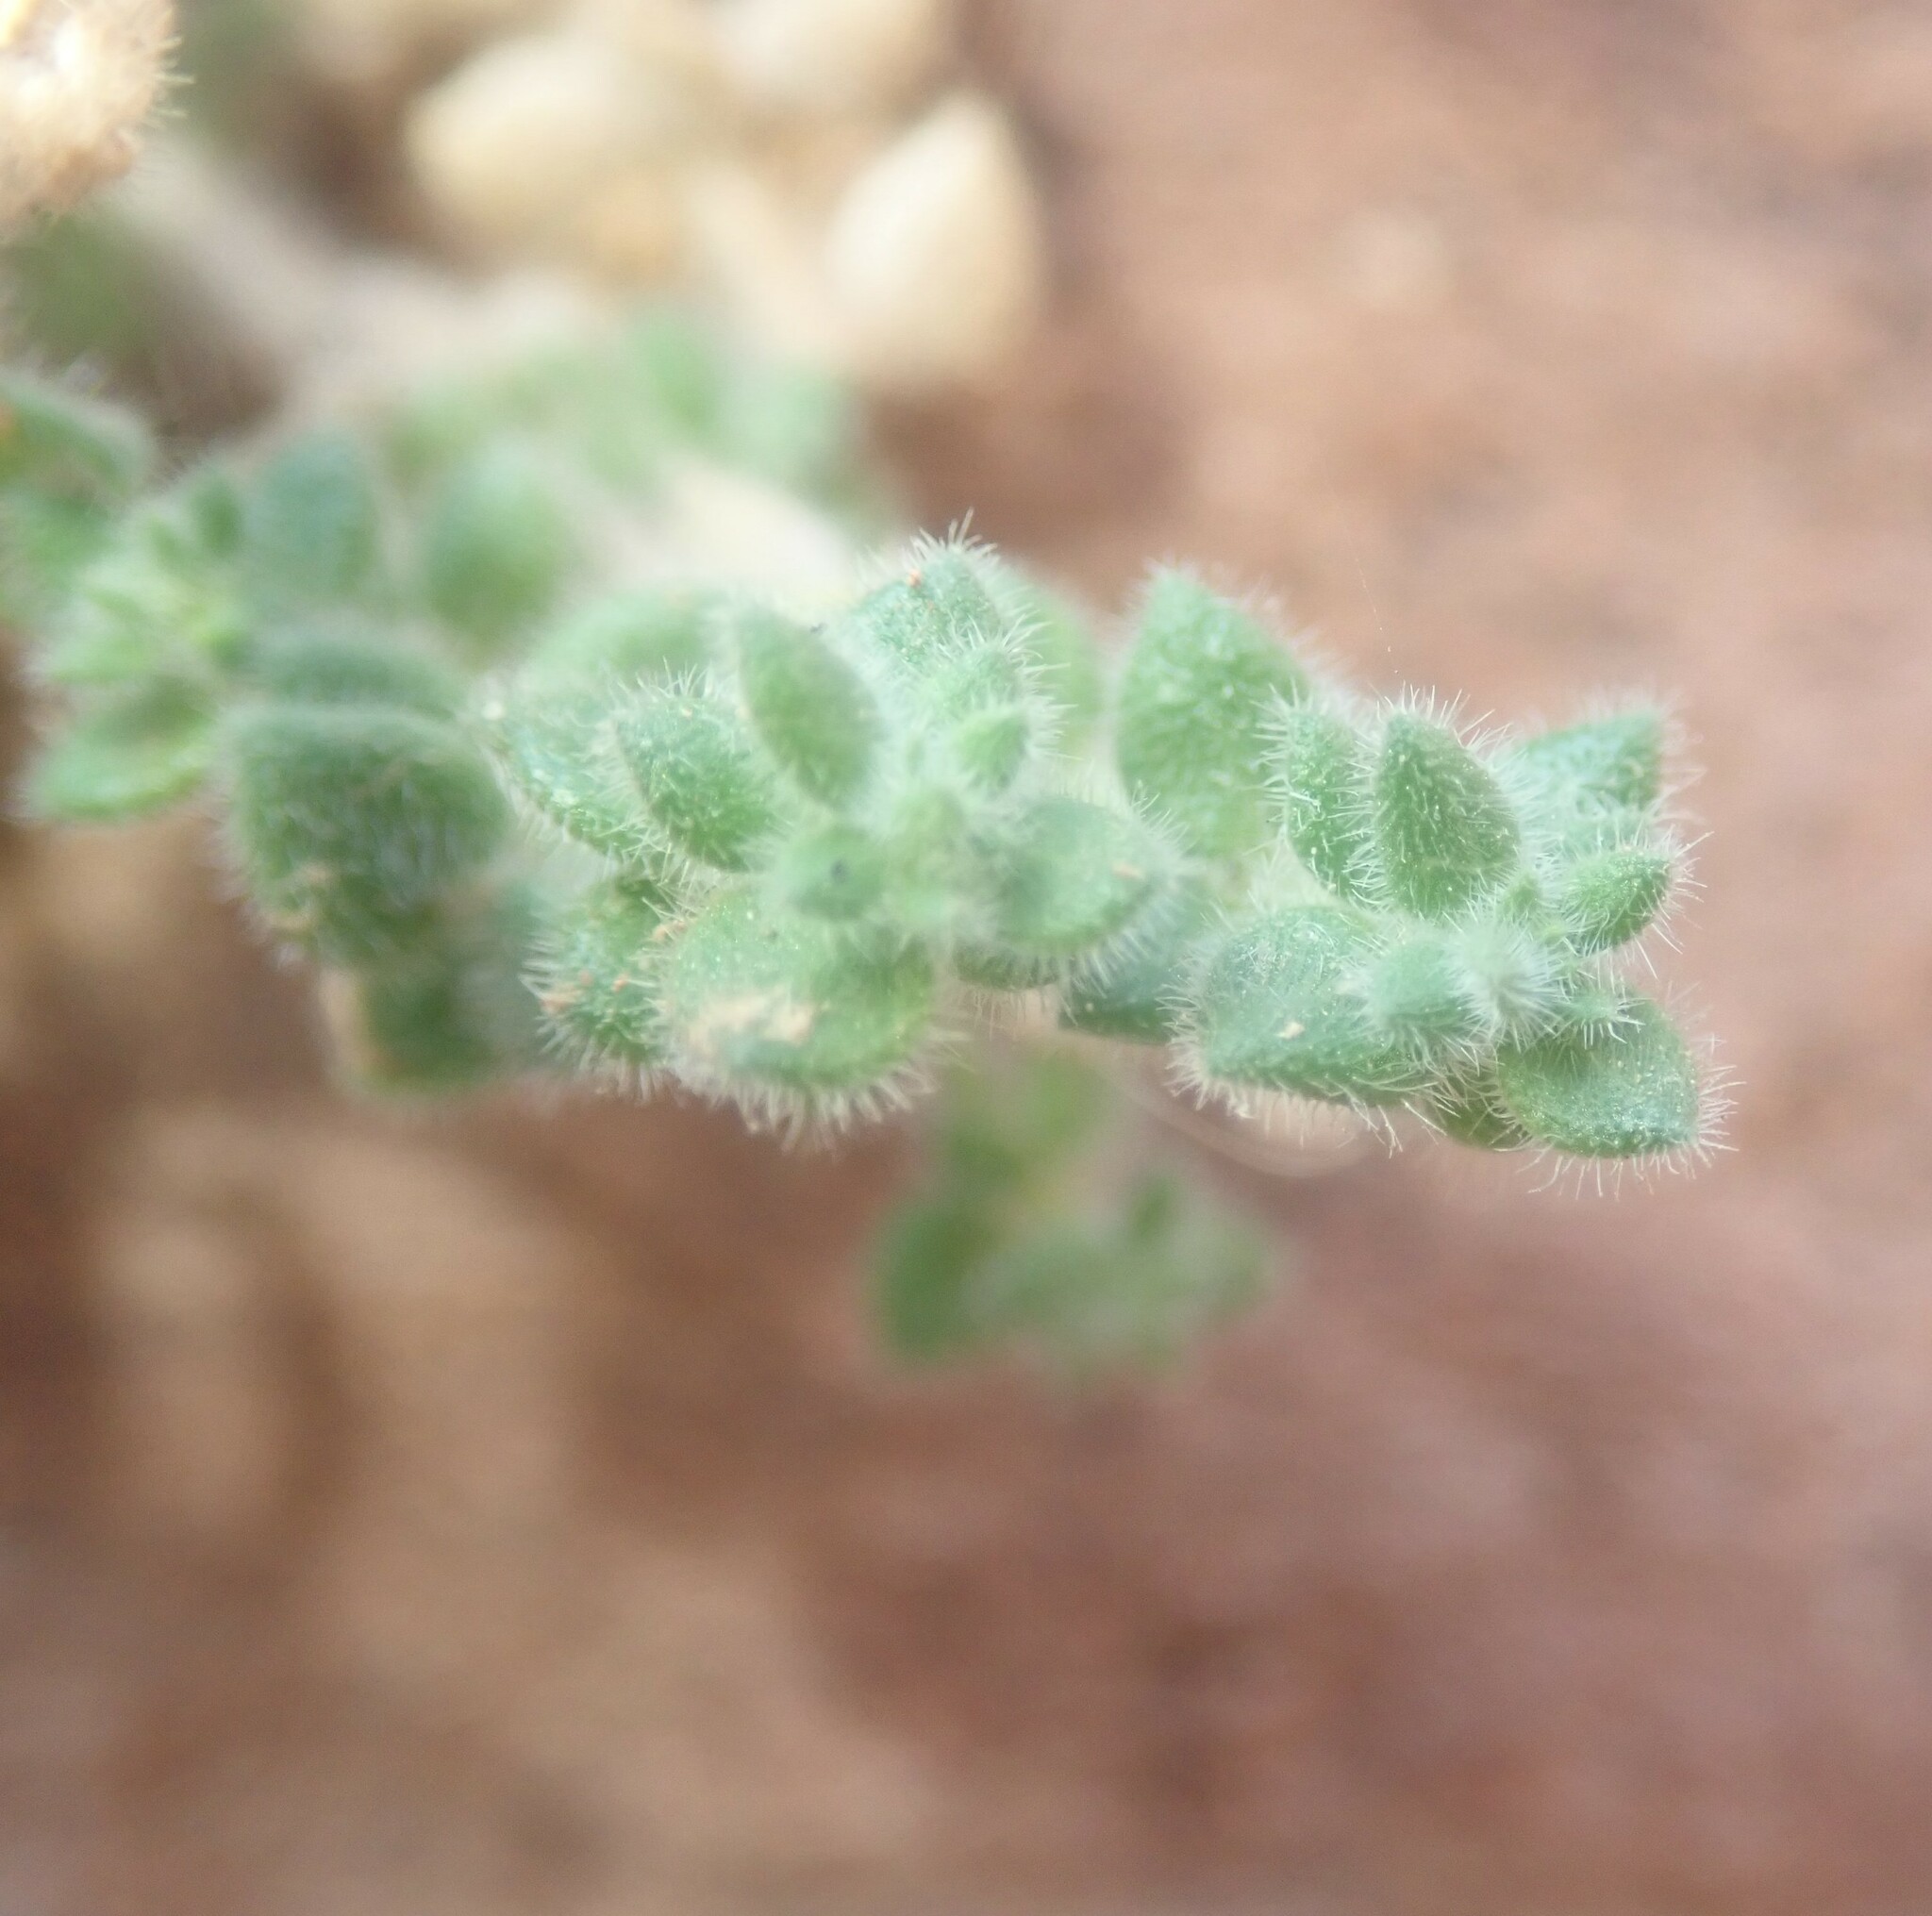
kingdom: Plantae
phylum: Tracheophyta
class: Magnoliopsida
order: Caryophyllales
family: Caryophyllaceae
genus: Herniaria
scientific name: Herniaria hirsuta
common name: Hairy rupturewort
